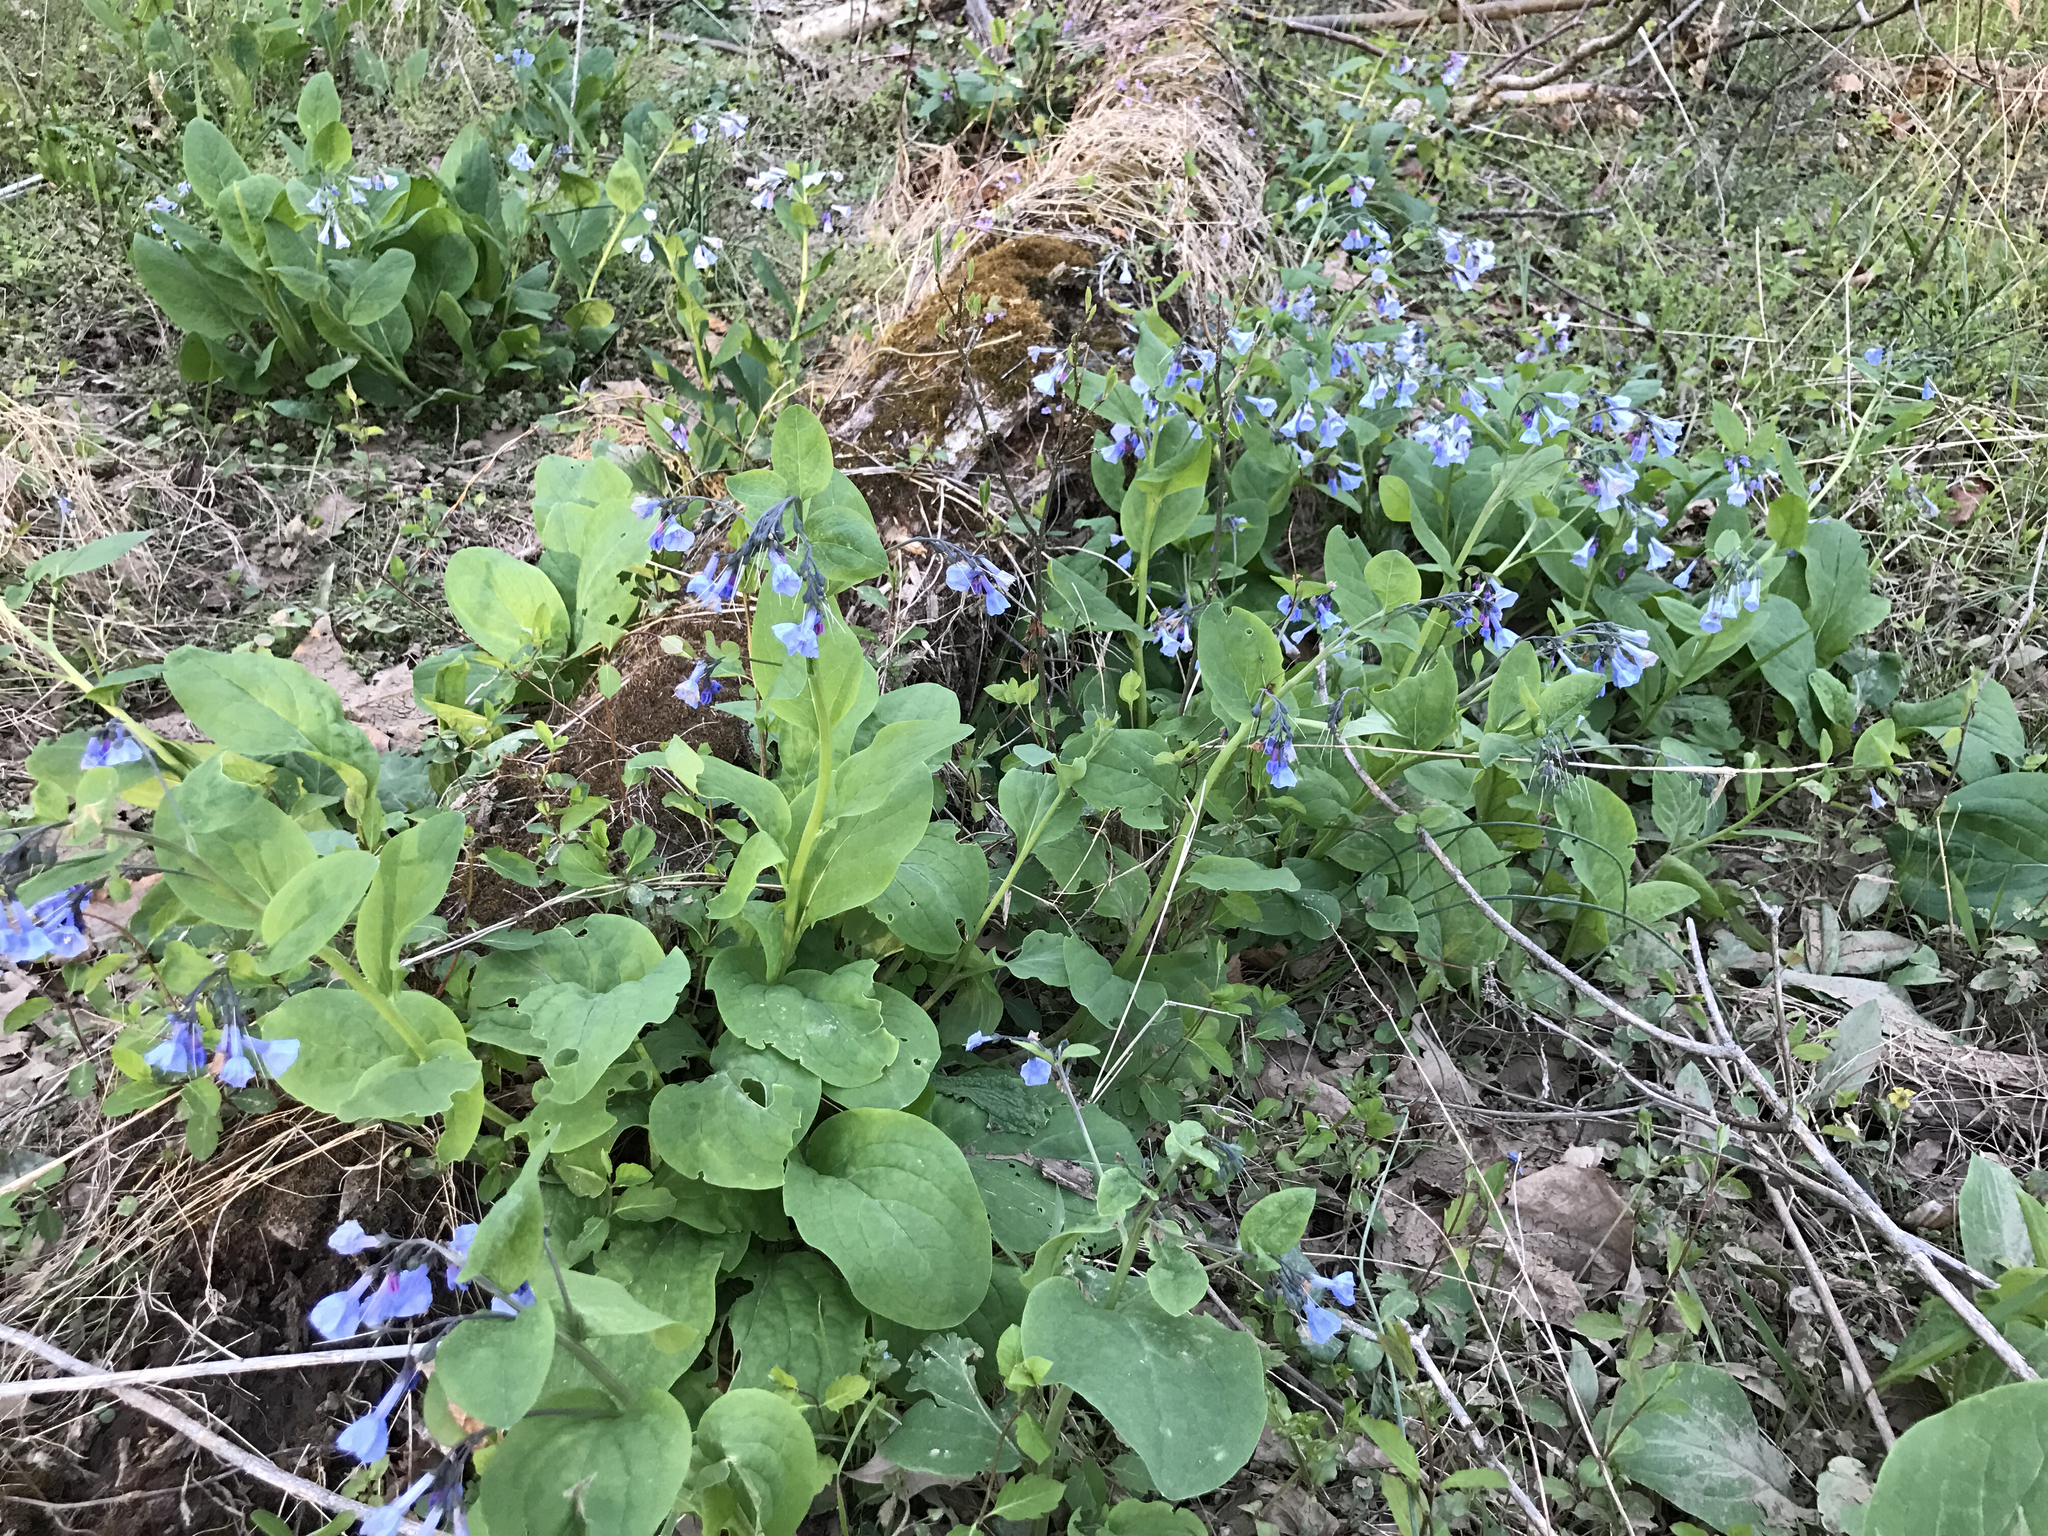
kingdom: Plantae
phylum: Tracheophyta
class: Magnoliopsida
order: Boraginales
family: Boraginaceae
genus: Mertensia
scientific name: Mertensia virginica
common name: Virginia bluebells
